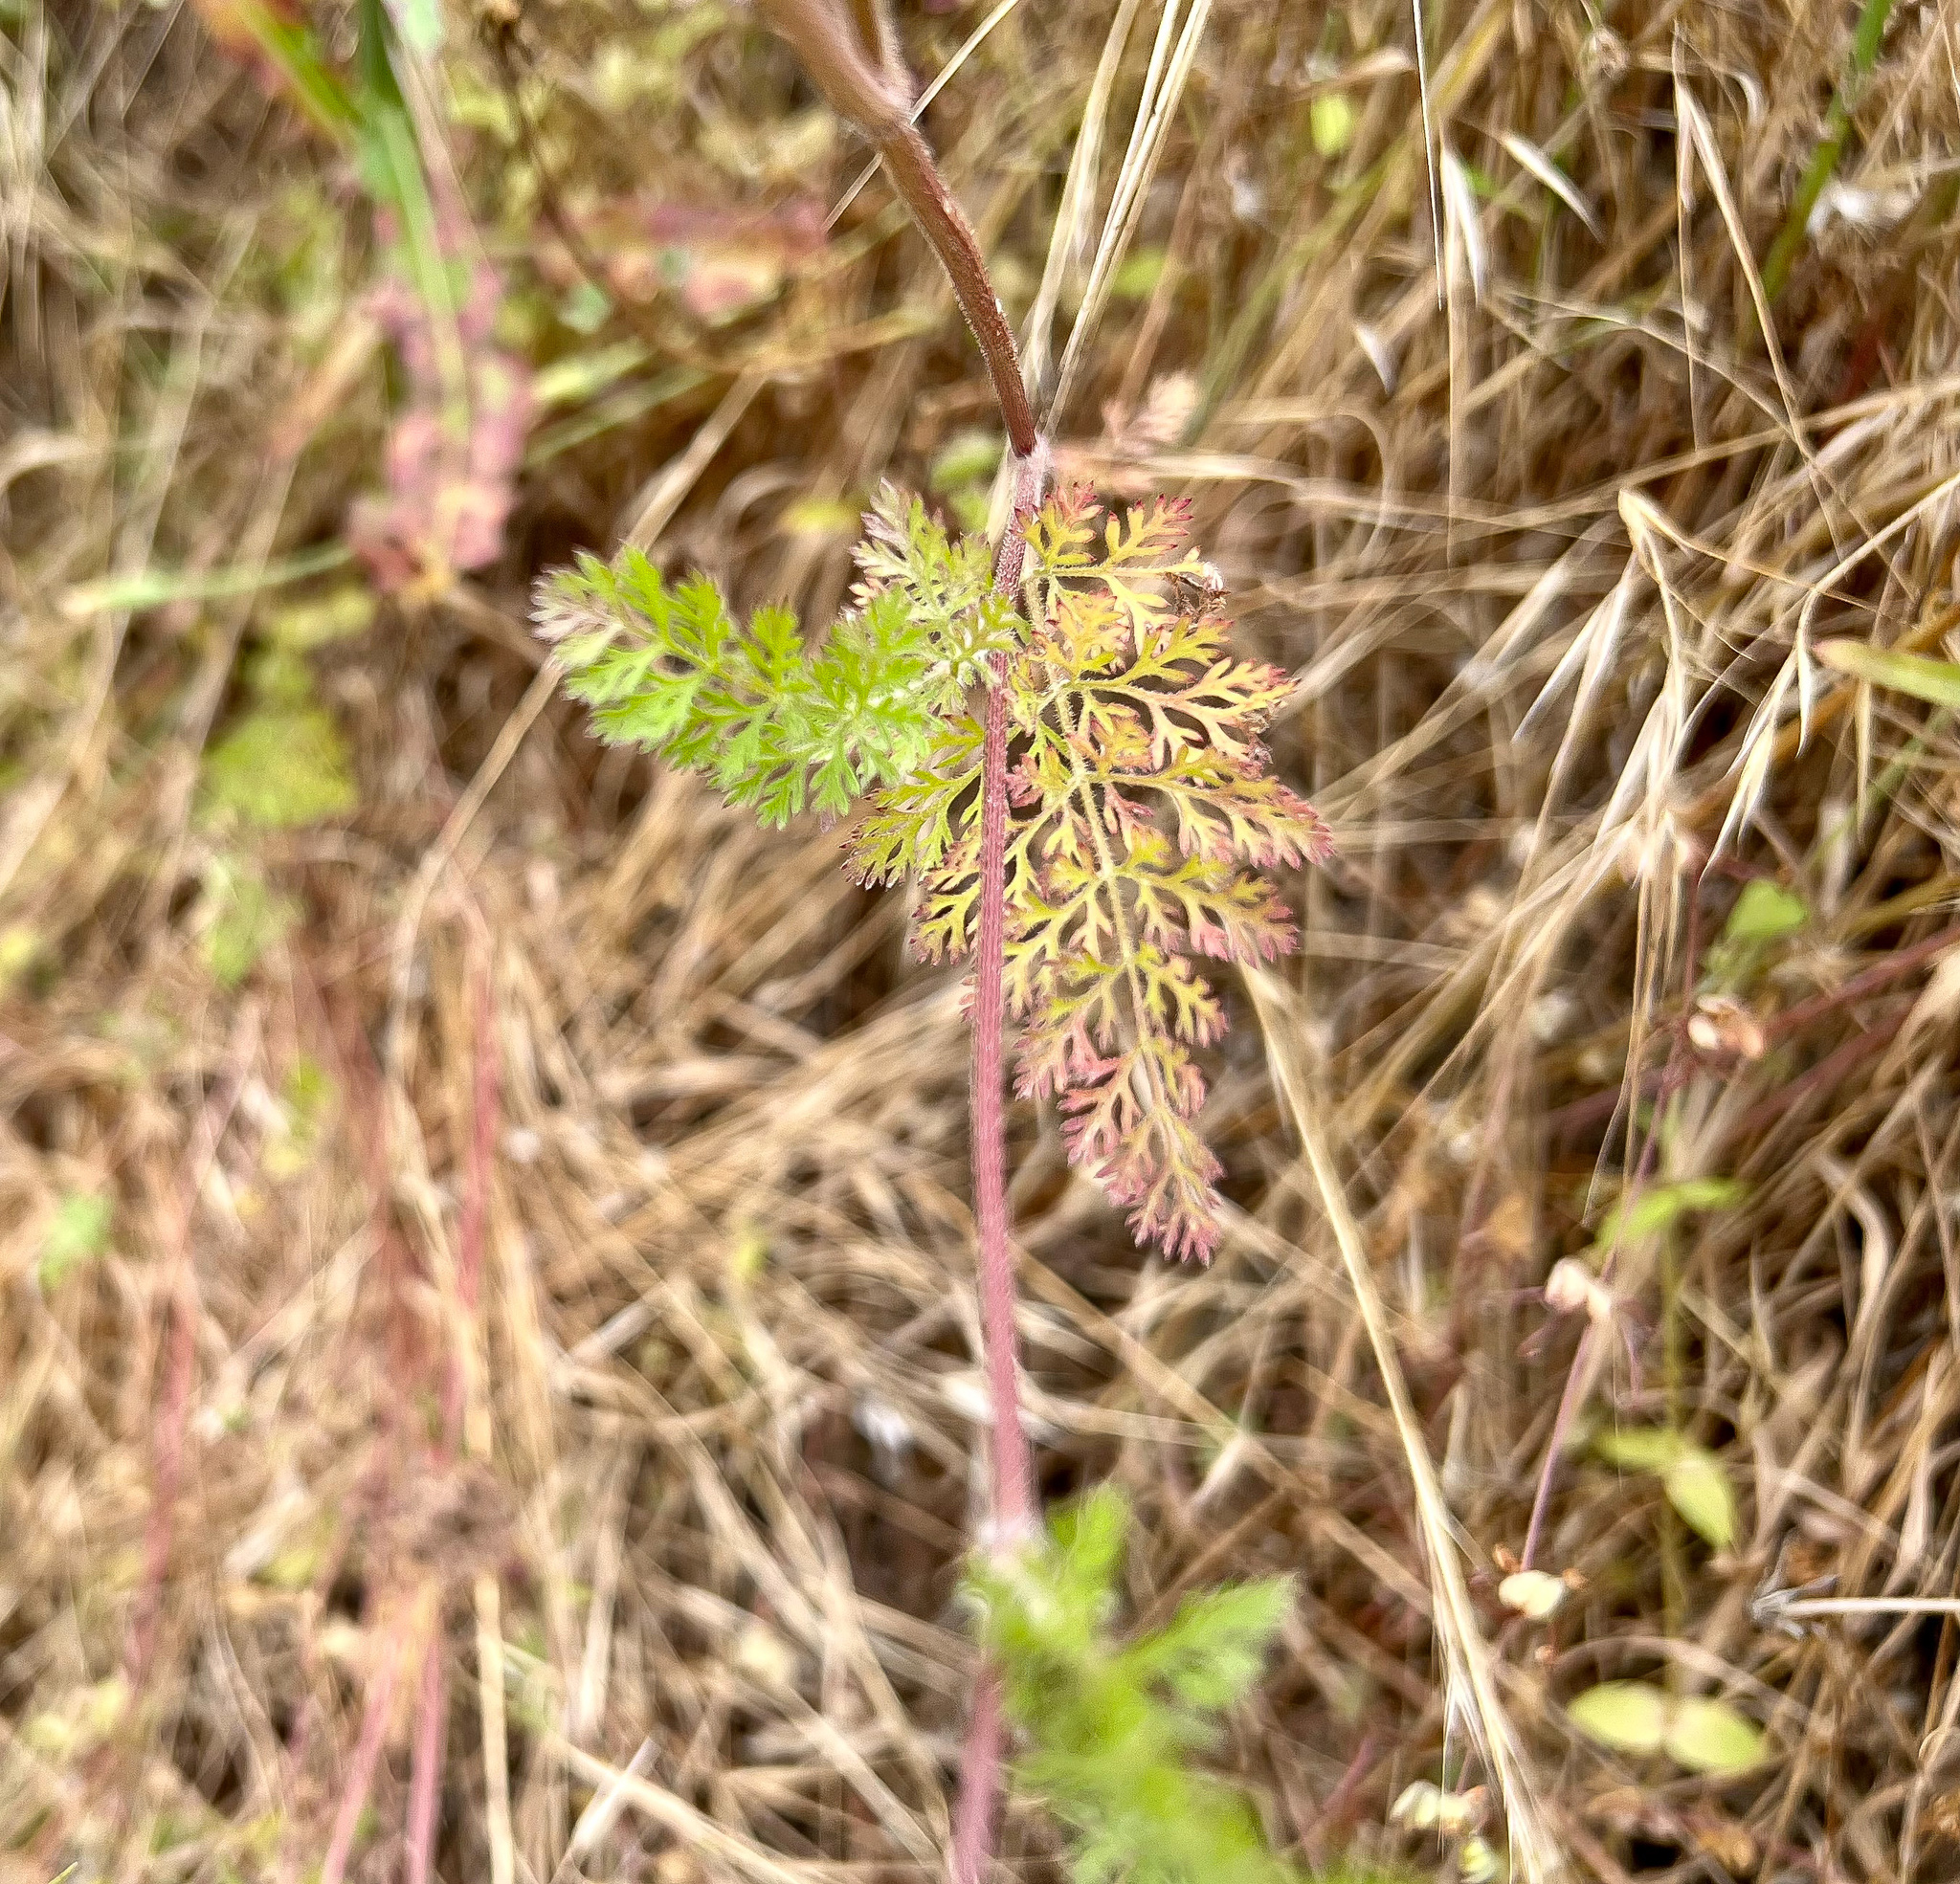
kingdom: Plantae
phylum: Tracheophyta
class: Magnoliopsida
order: Apiales
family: Apiaceae
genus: Daucus
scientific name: Daucus pusillus
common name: Southwest wild carrot
